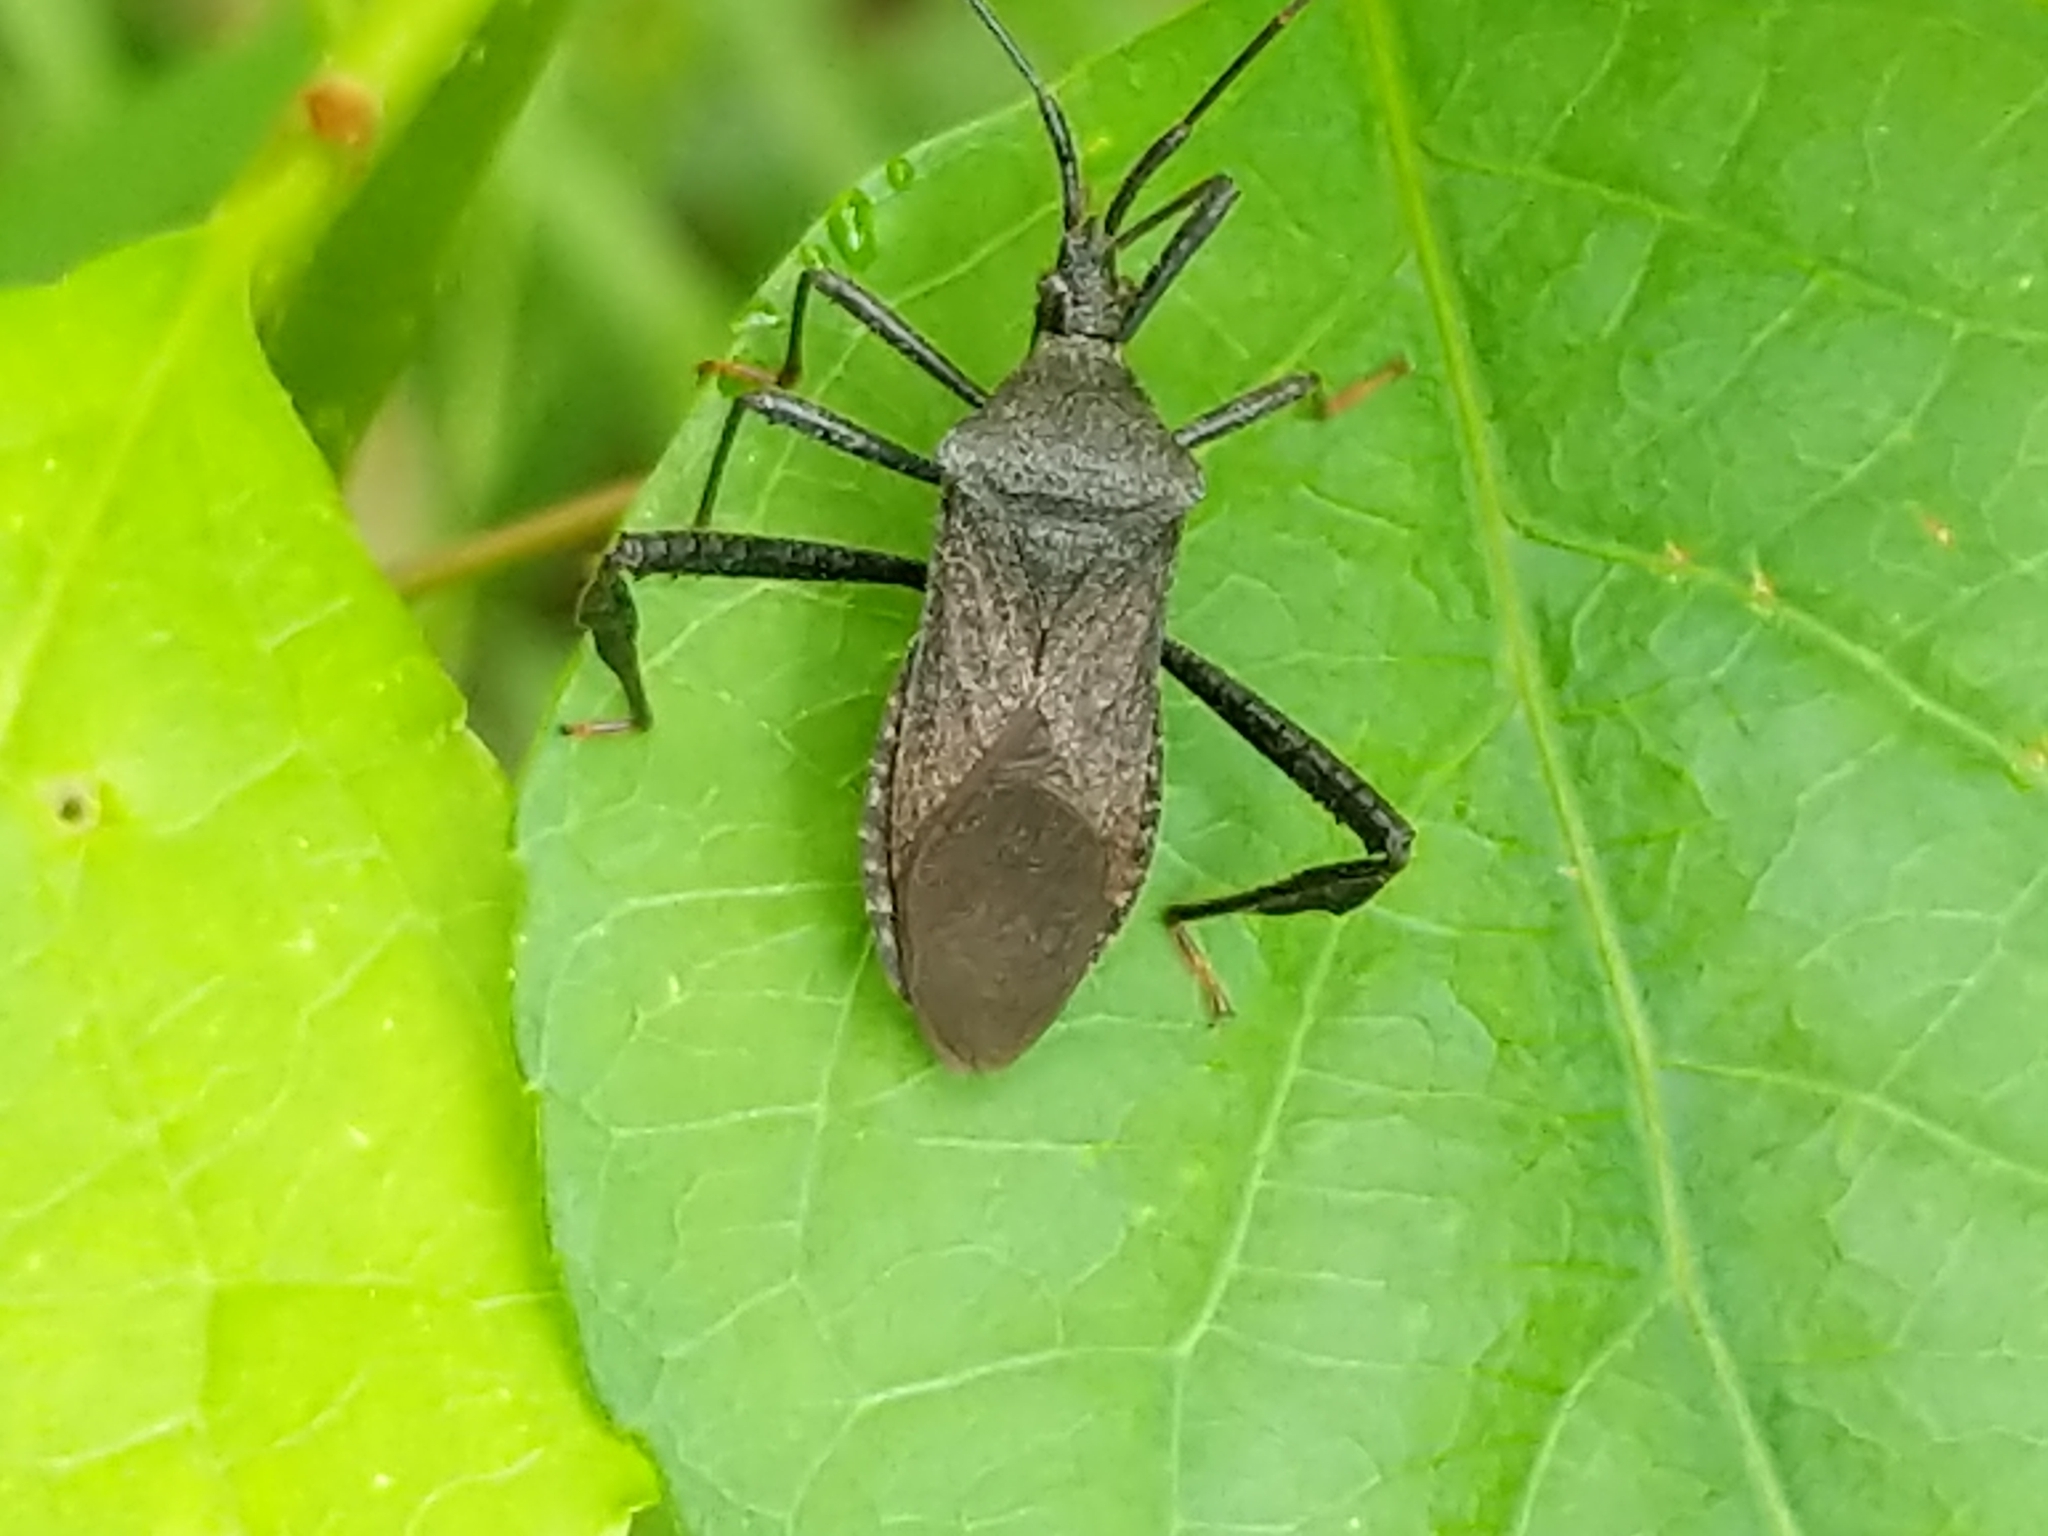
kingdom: Animalia
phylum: Arthropoda
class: Insecta
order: Hemiptera
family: Coreidae
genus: Acanthocephala
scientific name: Acanthocephala terminalis
